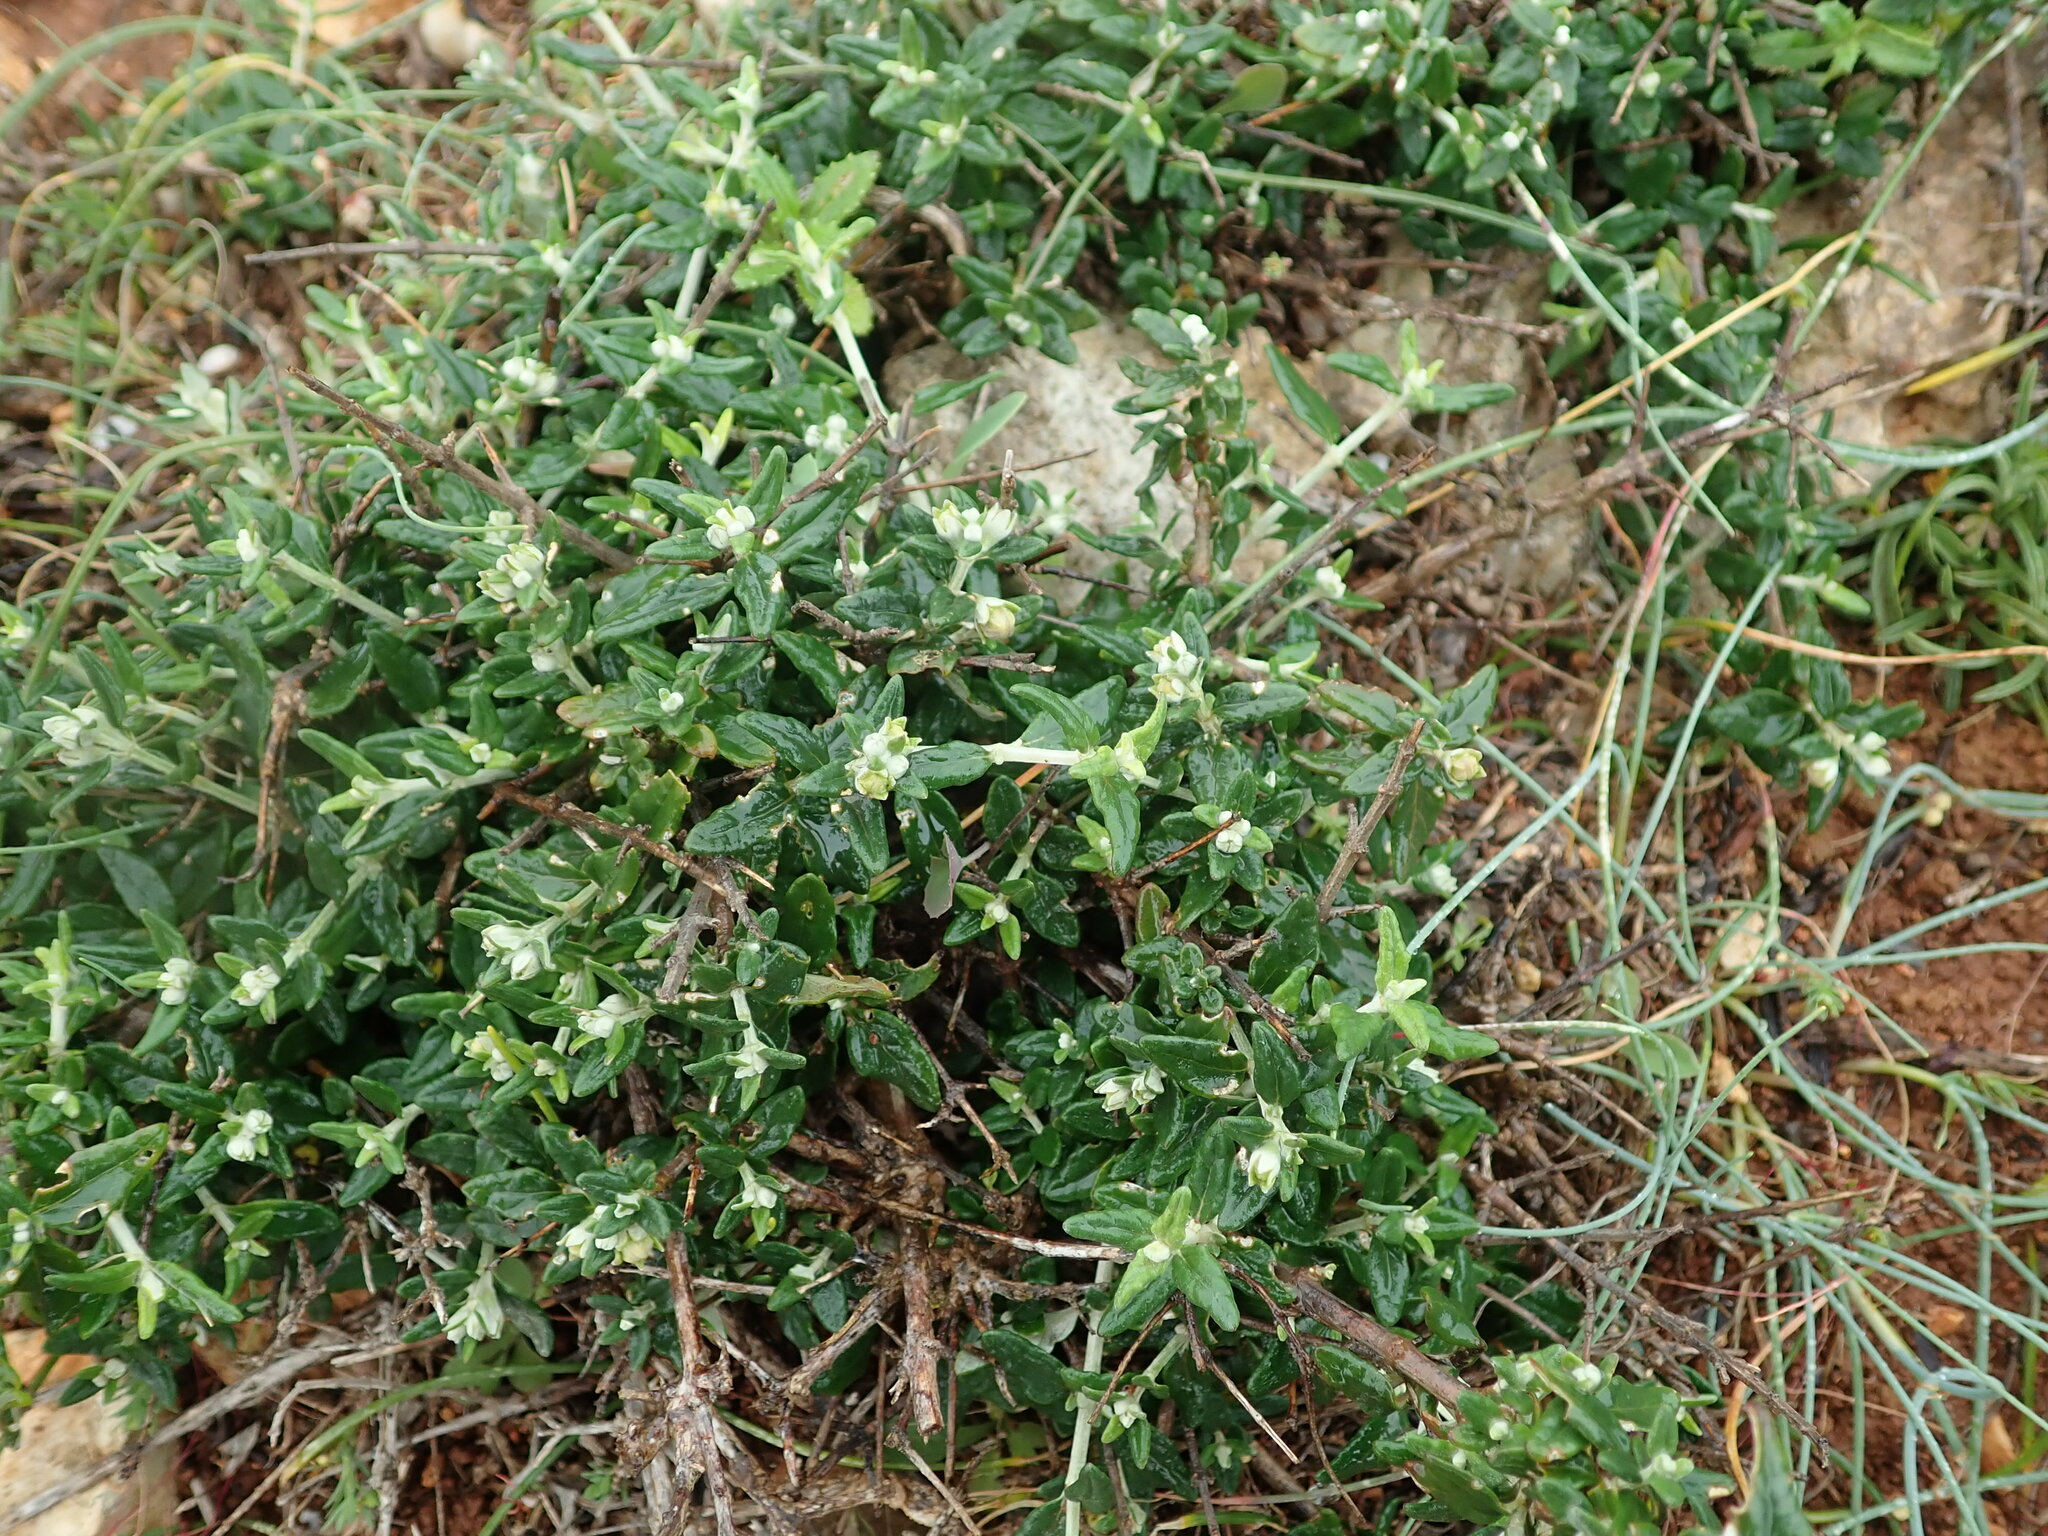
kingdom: Plantae
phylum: Tracheophyta
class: Magnoliopsida
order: Lamiales
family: Lamiaceae
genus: Teucrium
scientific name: Teucrium fruticans
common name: Shrubby germander
